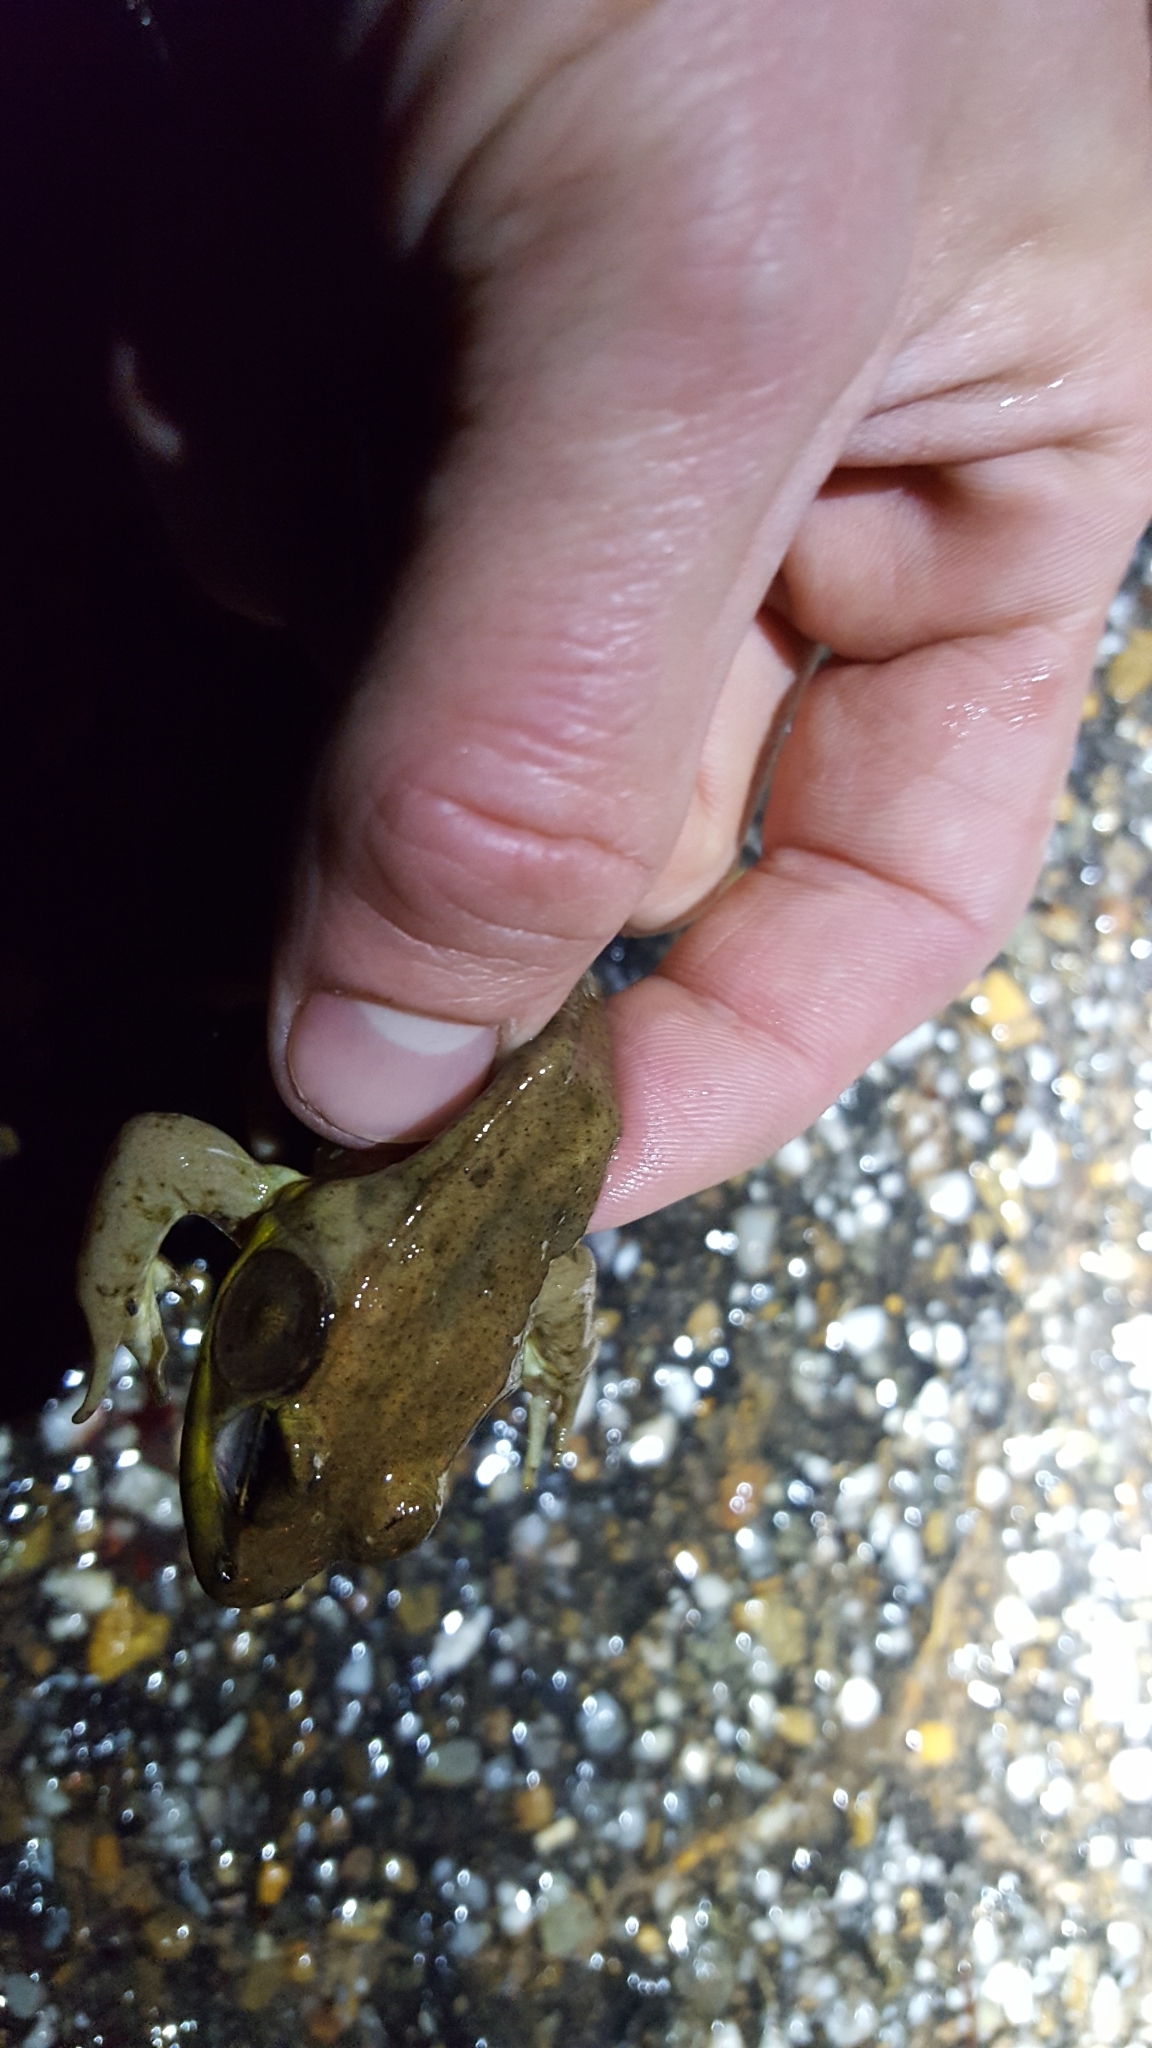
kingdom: Animalia
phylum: Chordata
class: Amphibia
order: Anura
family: Ranidae
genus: Lithobates
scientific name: Lithobates clamitans
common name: Green frog
